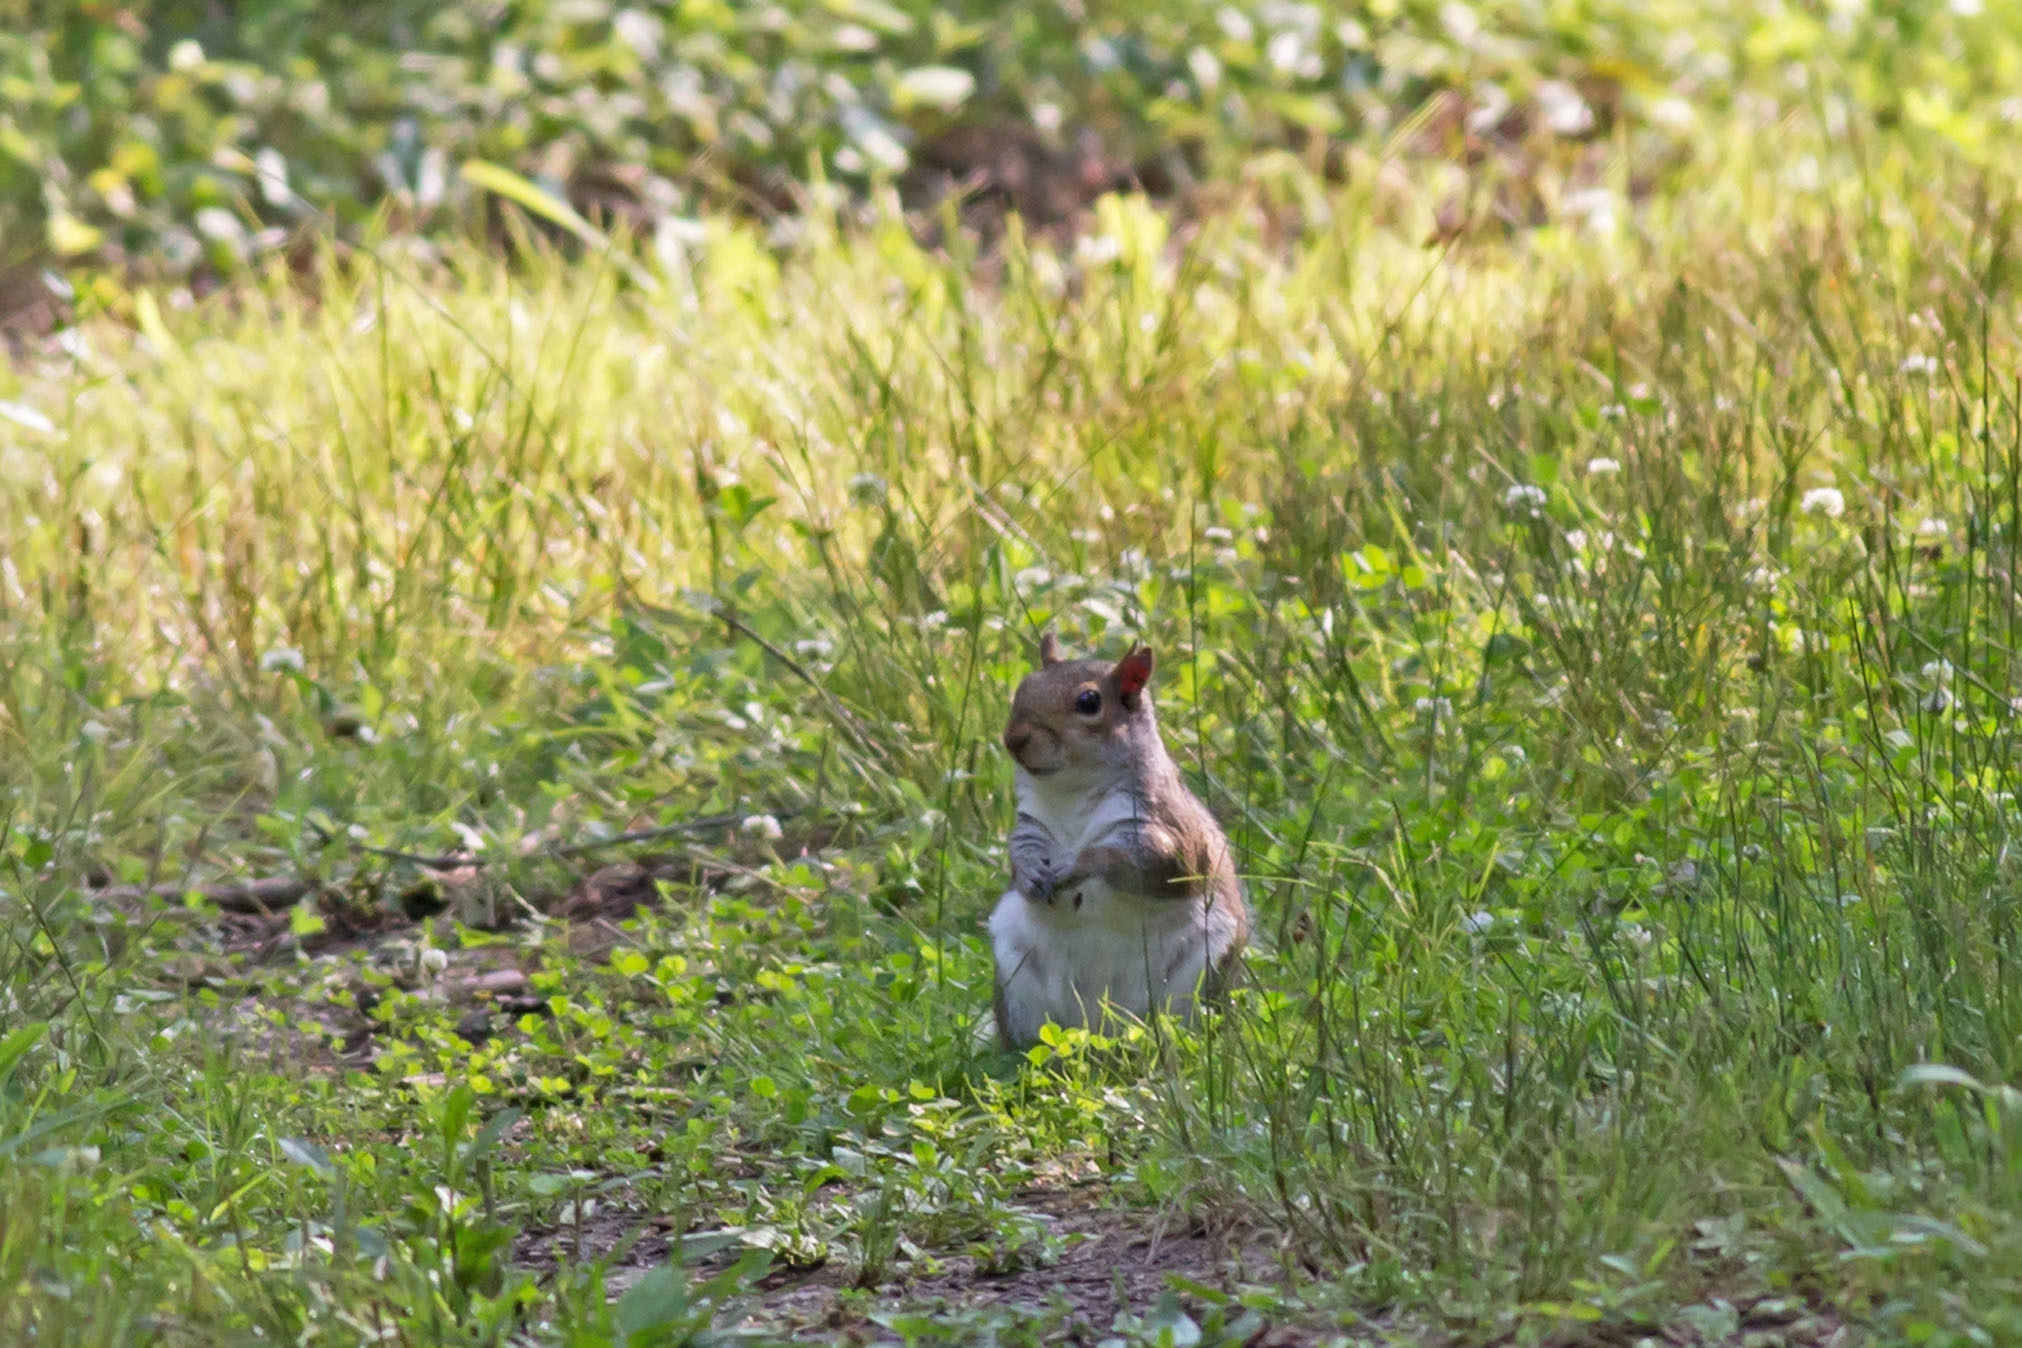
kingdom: Animalia
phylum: Chordata
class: Mammalia
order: Rodentia
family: Sciuridae
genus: Sciurus
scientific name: Sciurus carolinensis
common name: Eastern gray squirrel
